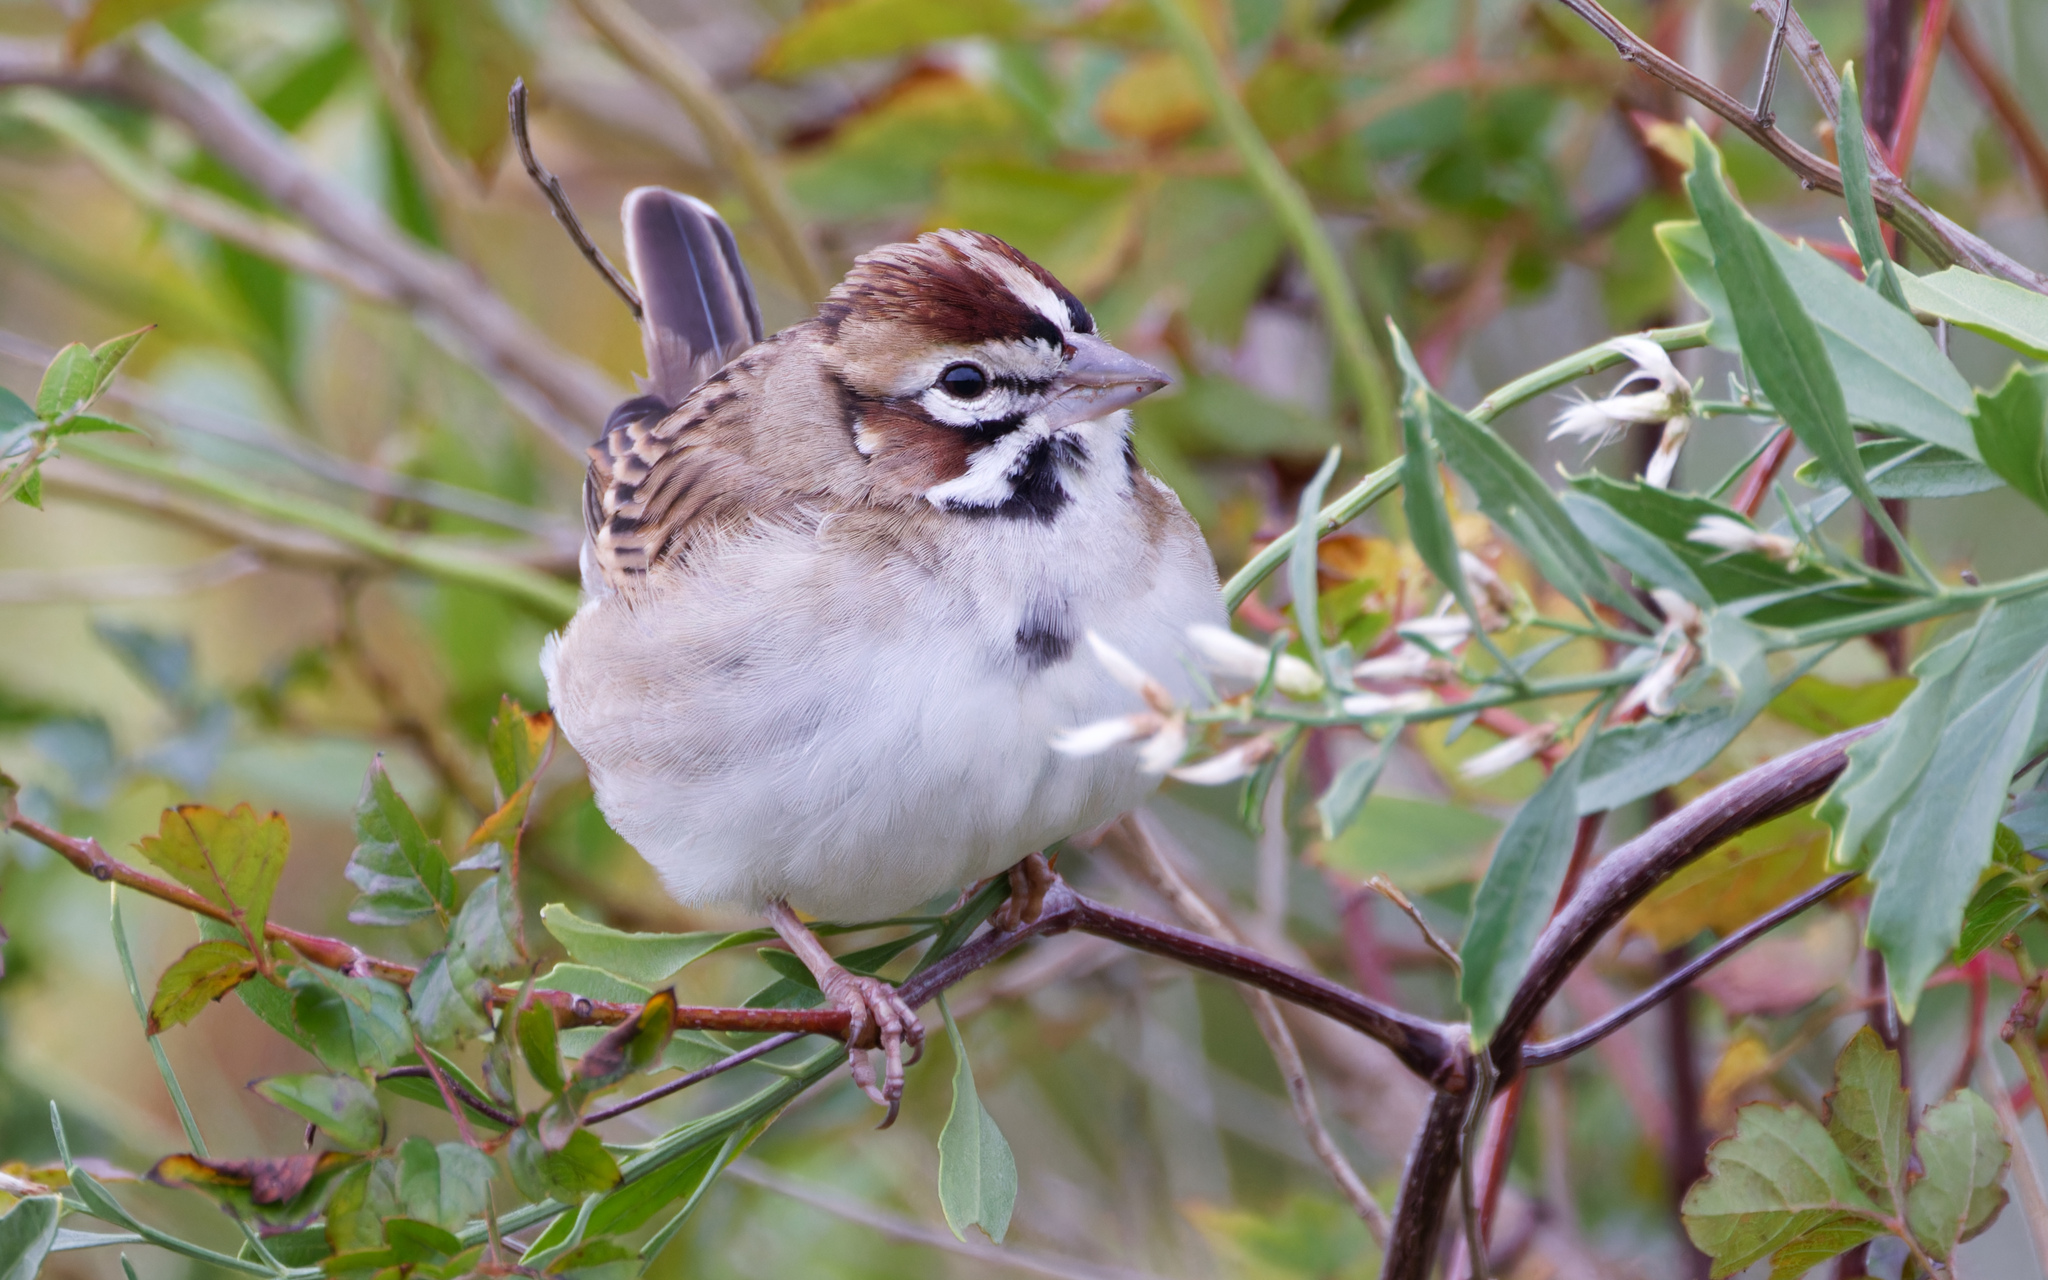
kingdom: Animalia
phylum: Chordata
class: Aves
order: Passeriformes
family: Passerellidae
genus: Chondestes
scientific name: Chondestes grammacus
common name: Lark sparrow
